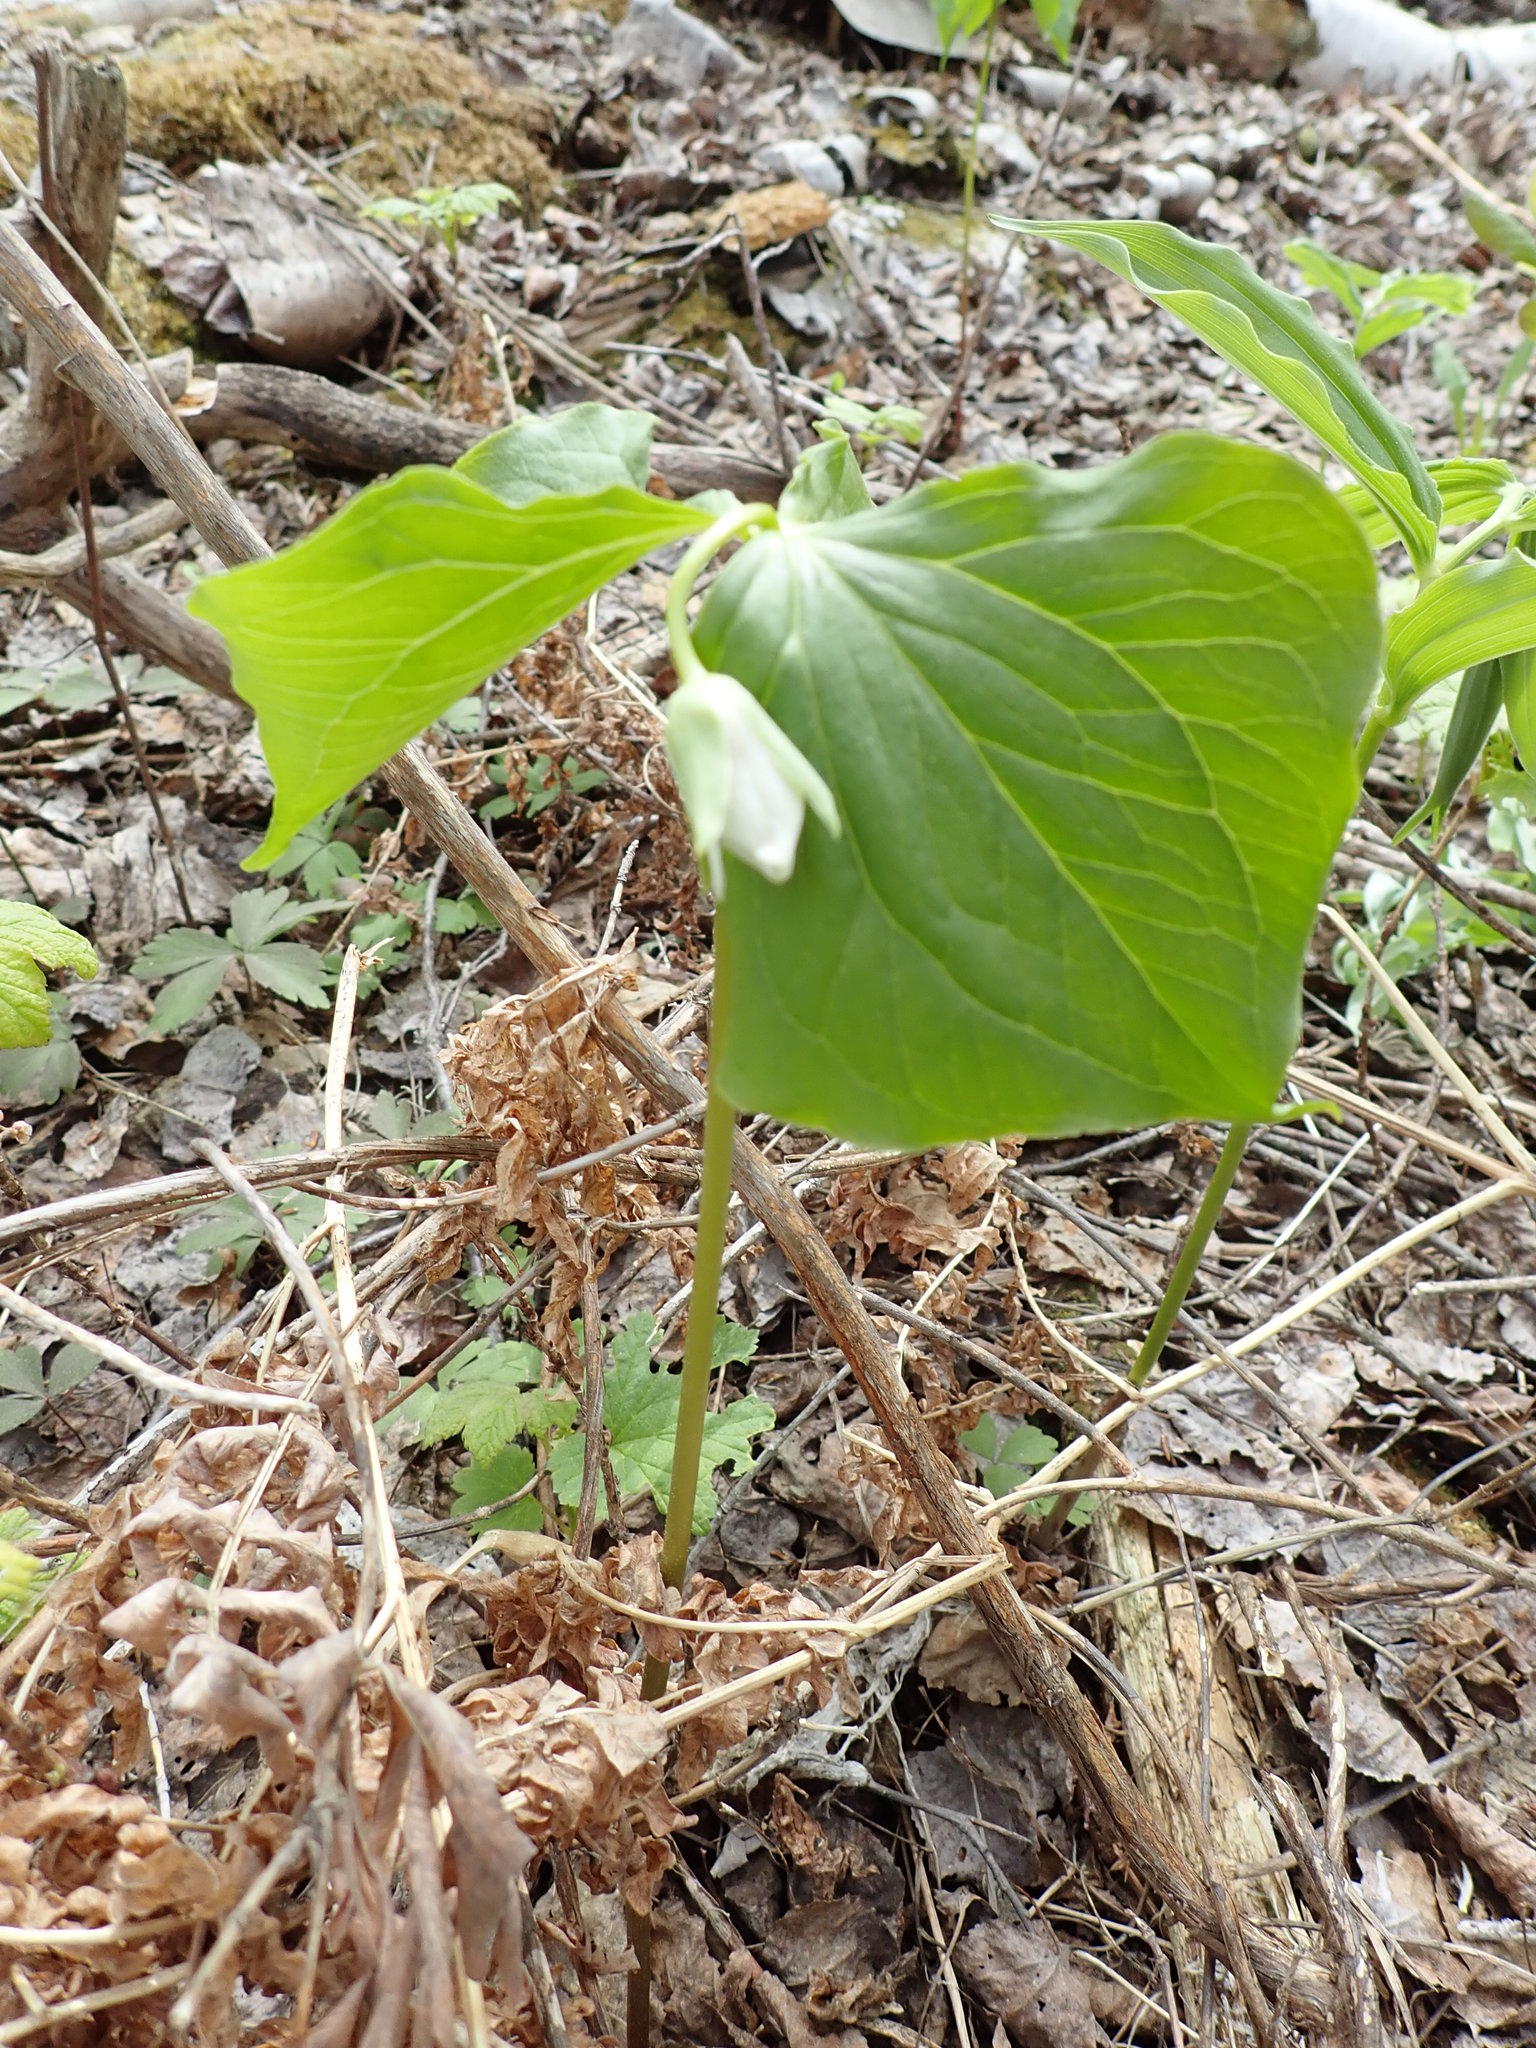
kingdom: Plantae
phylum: Tracheophyta
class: Liliopsida
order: Liliales
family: Melanthiaceae
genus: Trillium
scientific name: Trillium cernuum
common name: Nodding trillium
